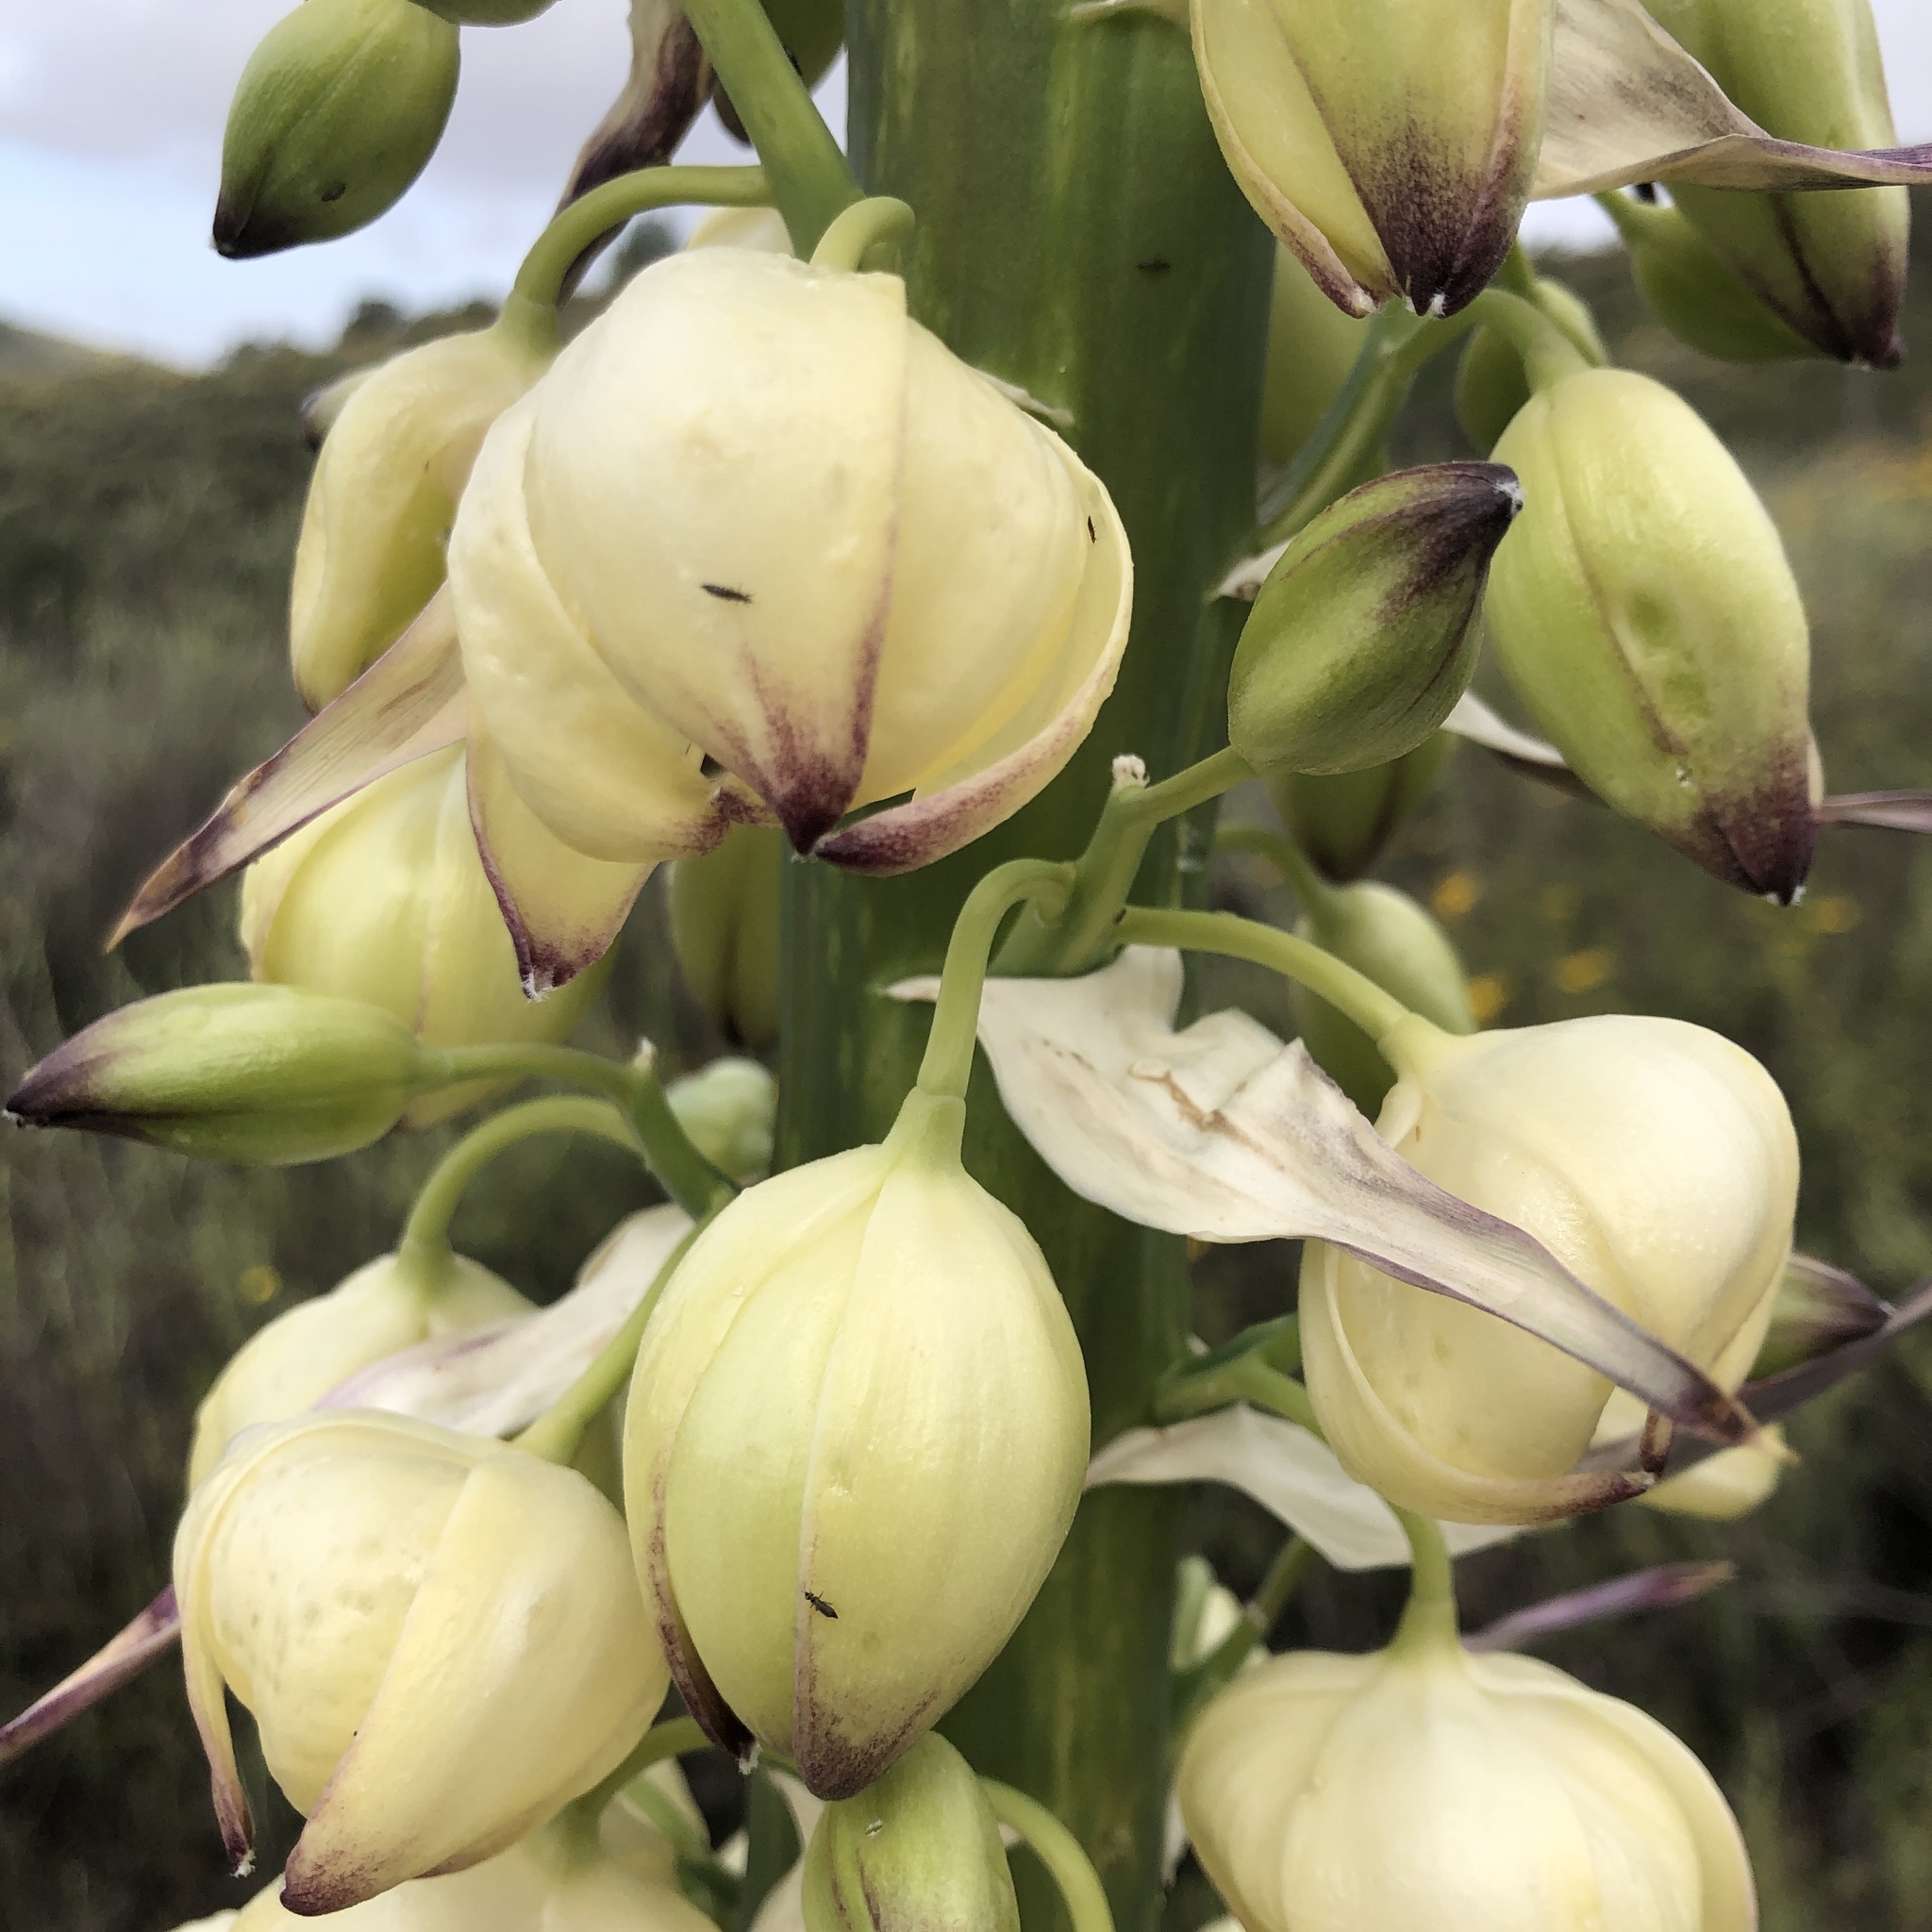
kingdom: Plantae
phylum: Tracheophyta
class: Liliopsida
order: Asparagales
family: Asparagaceae
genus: Hesperoyucca
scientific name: Hesperoyucca whipplei
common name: Our lord's-candle
